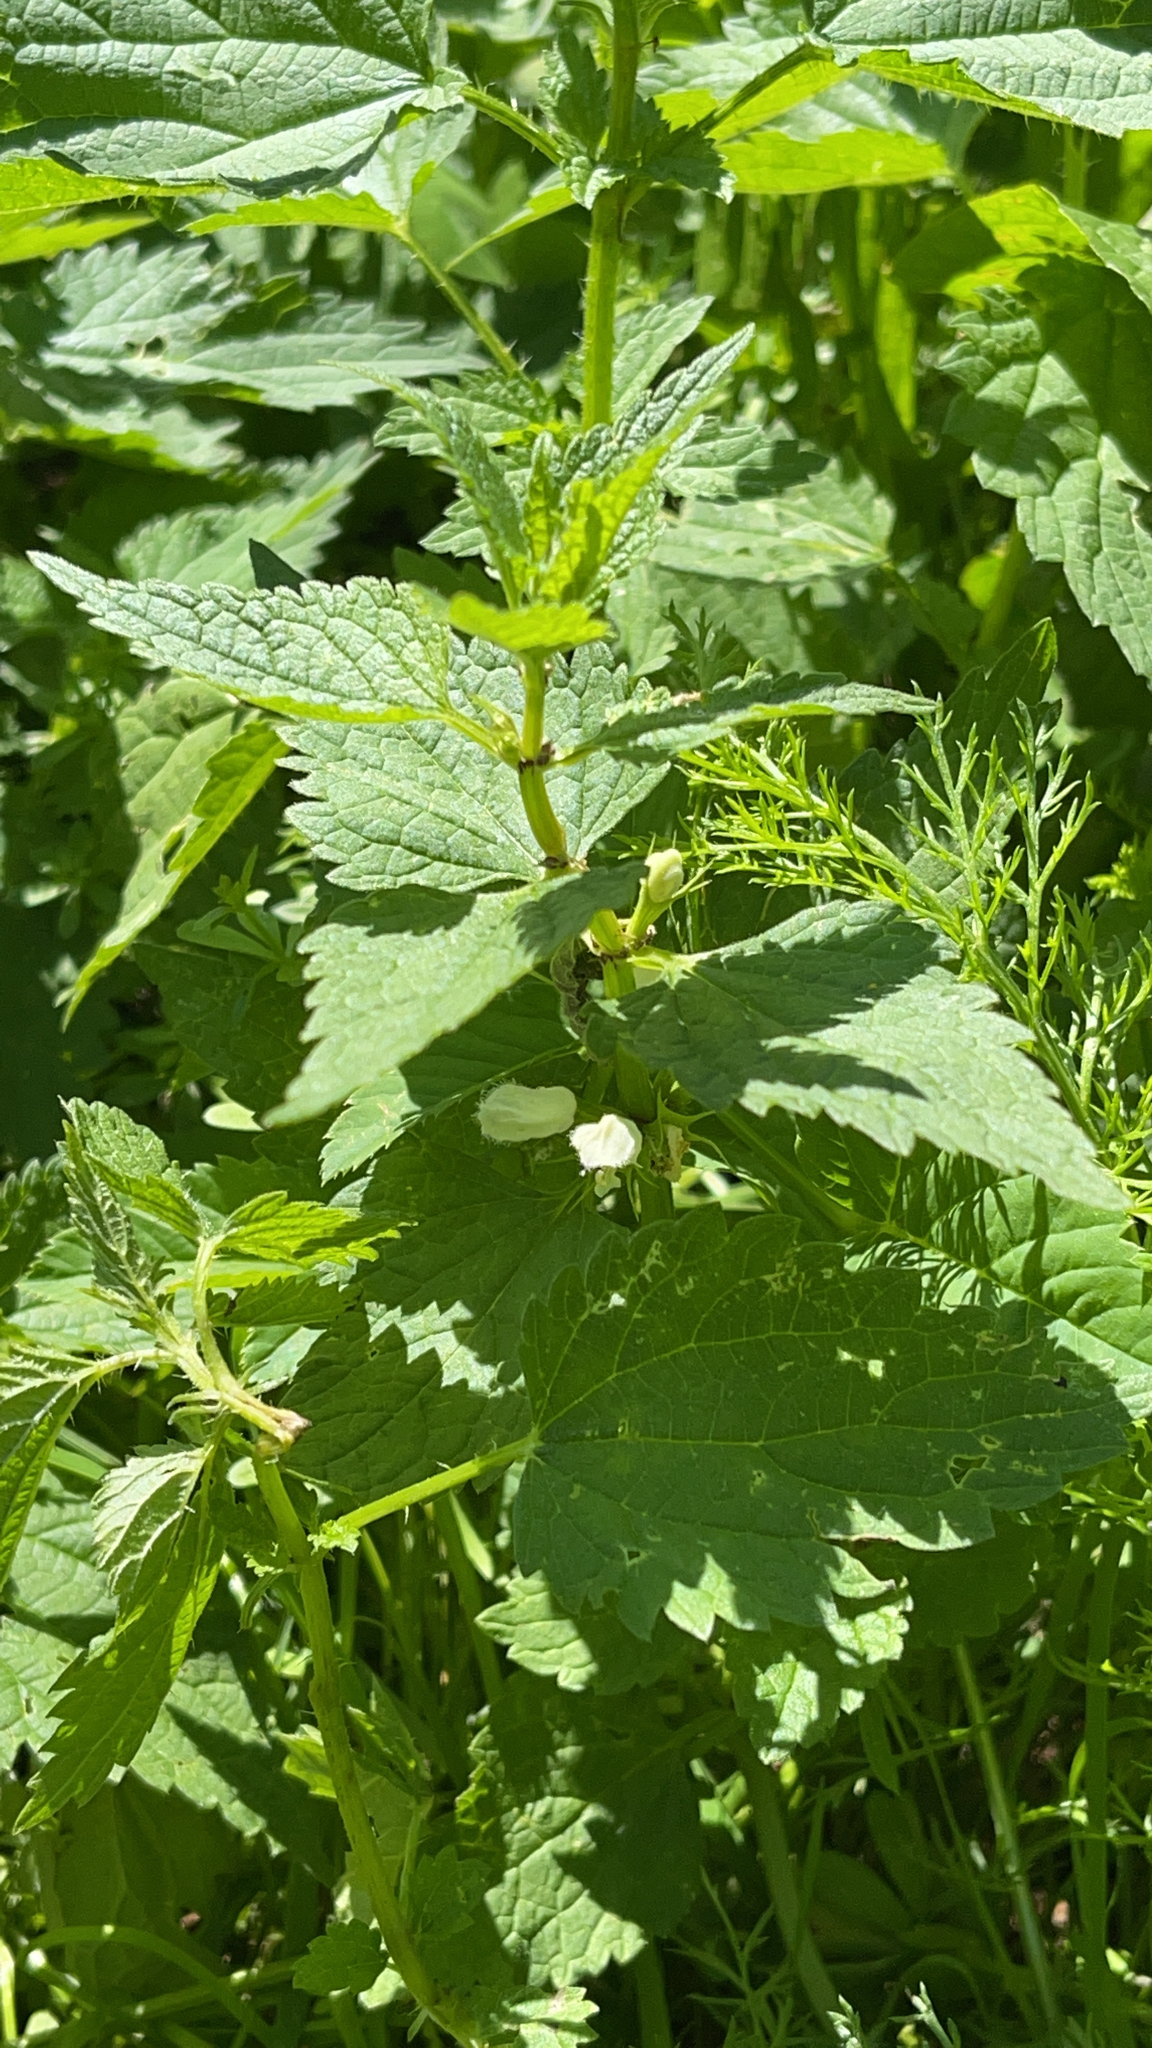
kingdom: Plantae
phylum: Tracheophyta
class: Magnoliopsida
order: Lamiales
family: Lamiaceae
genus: Lamium
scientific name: Lamium album
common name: White dead-nettle
